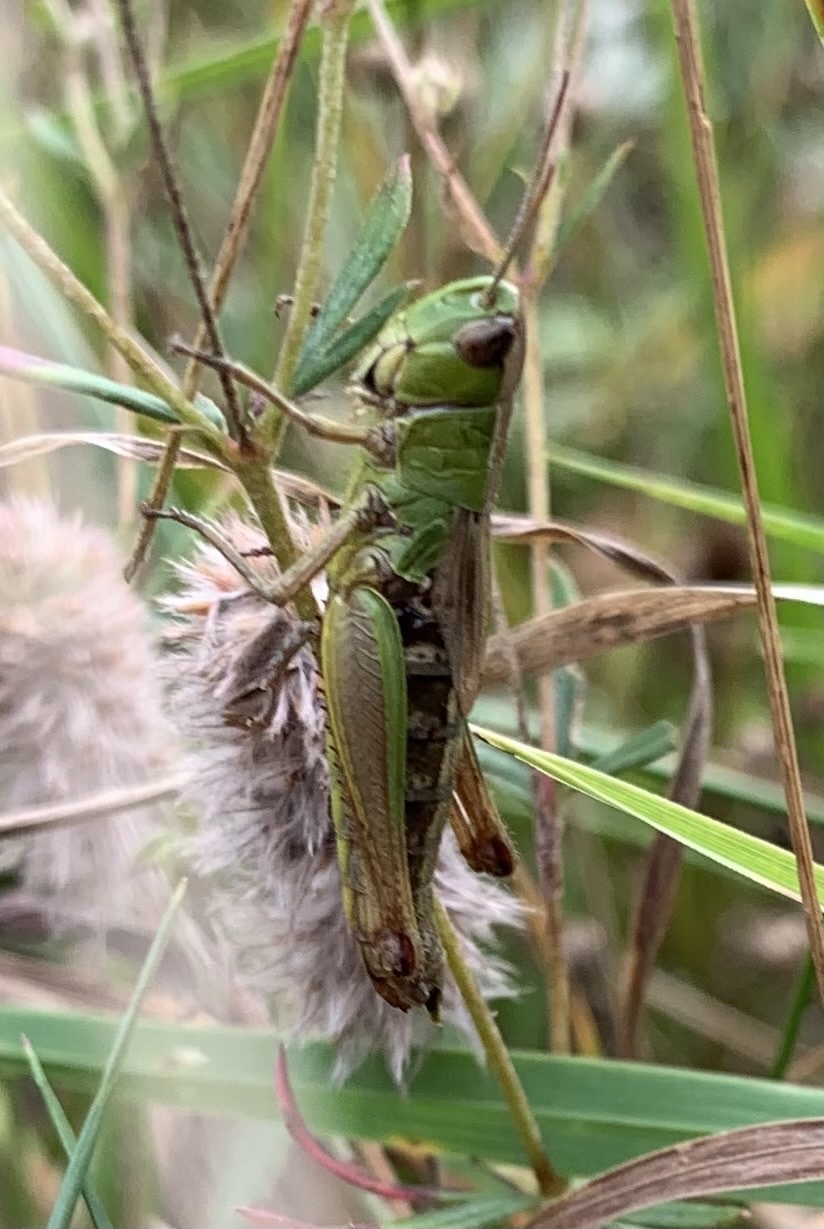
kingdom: Animalia
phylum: Arthropoda
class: Insecta
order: Orthoptera
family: Acrididae
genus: Pseudochorthippus
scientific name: Pseudochorthippus parallelus
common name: Meadow grasshopper
